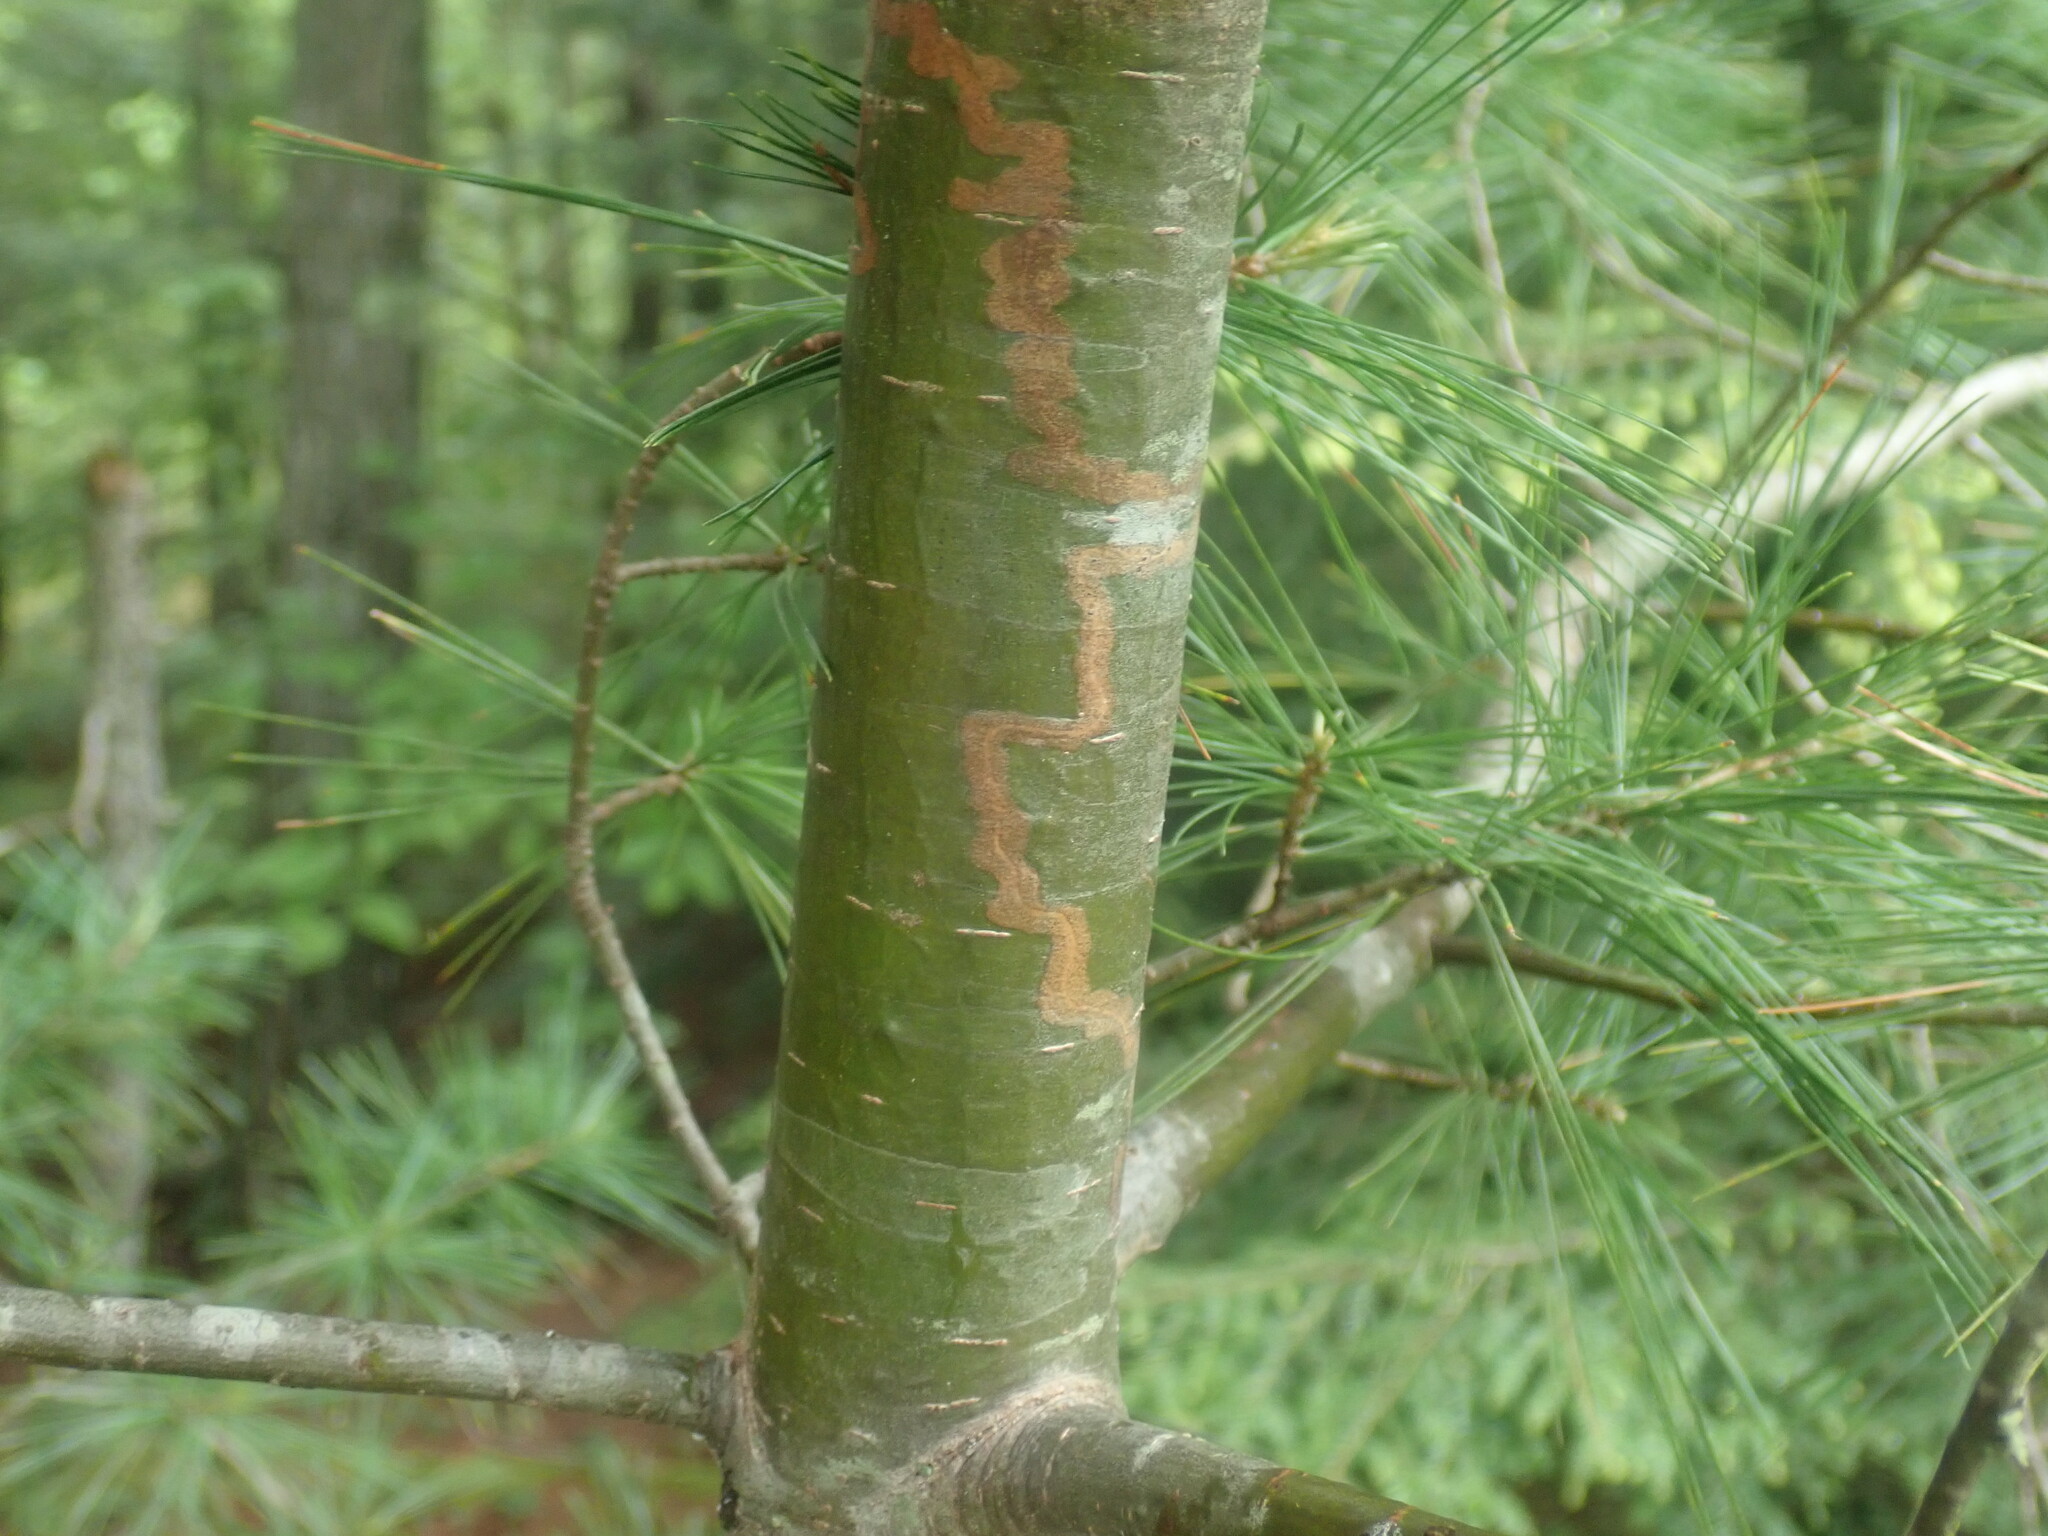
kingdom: Animalia
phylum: Arthropoda
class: Insecta
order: Lepidoptera
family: Gracillariidae
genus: Marmara
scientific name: Marmara fasciella
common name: White pine barkminer moth
